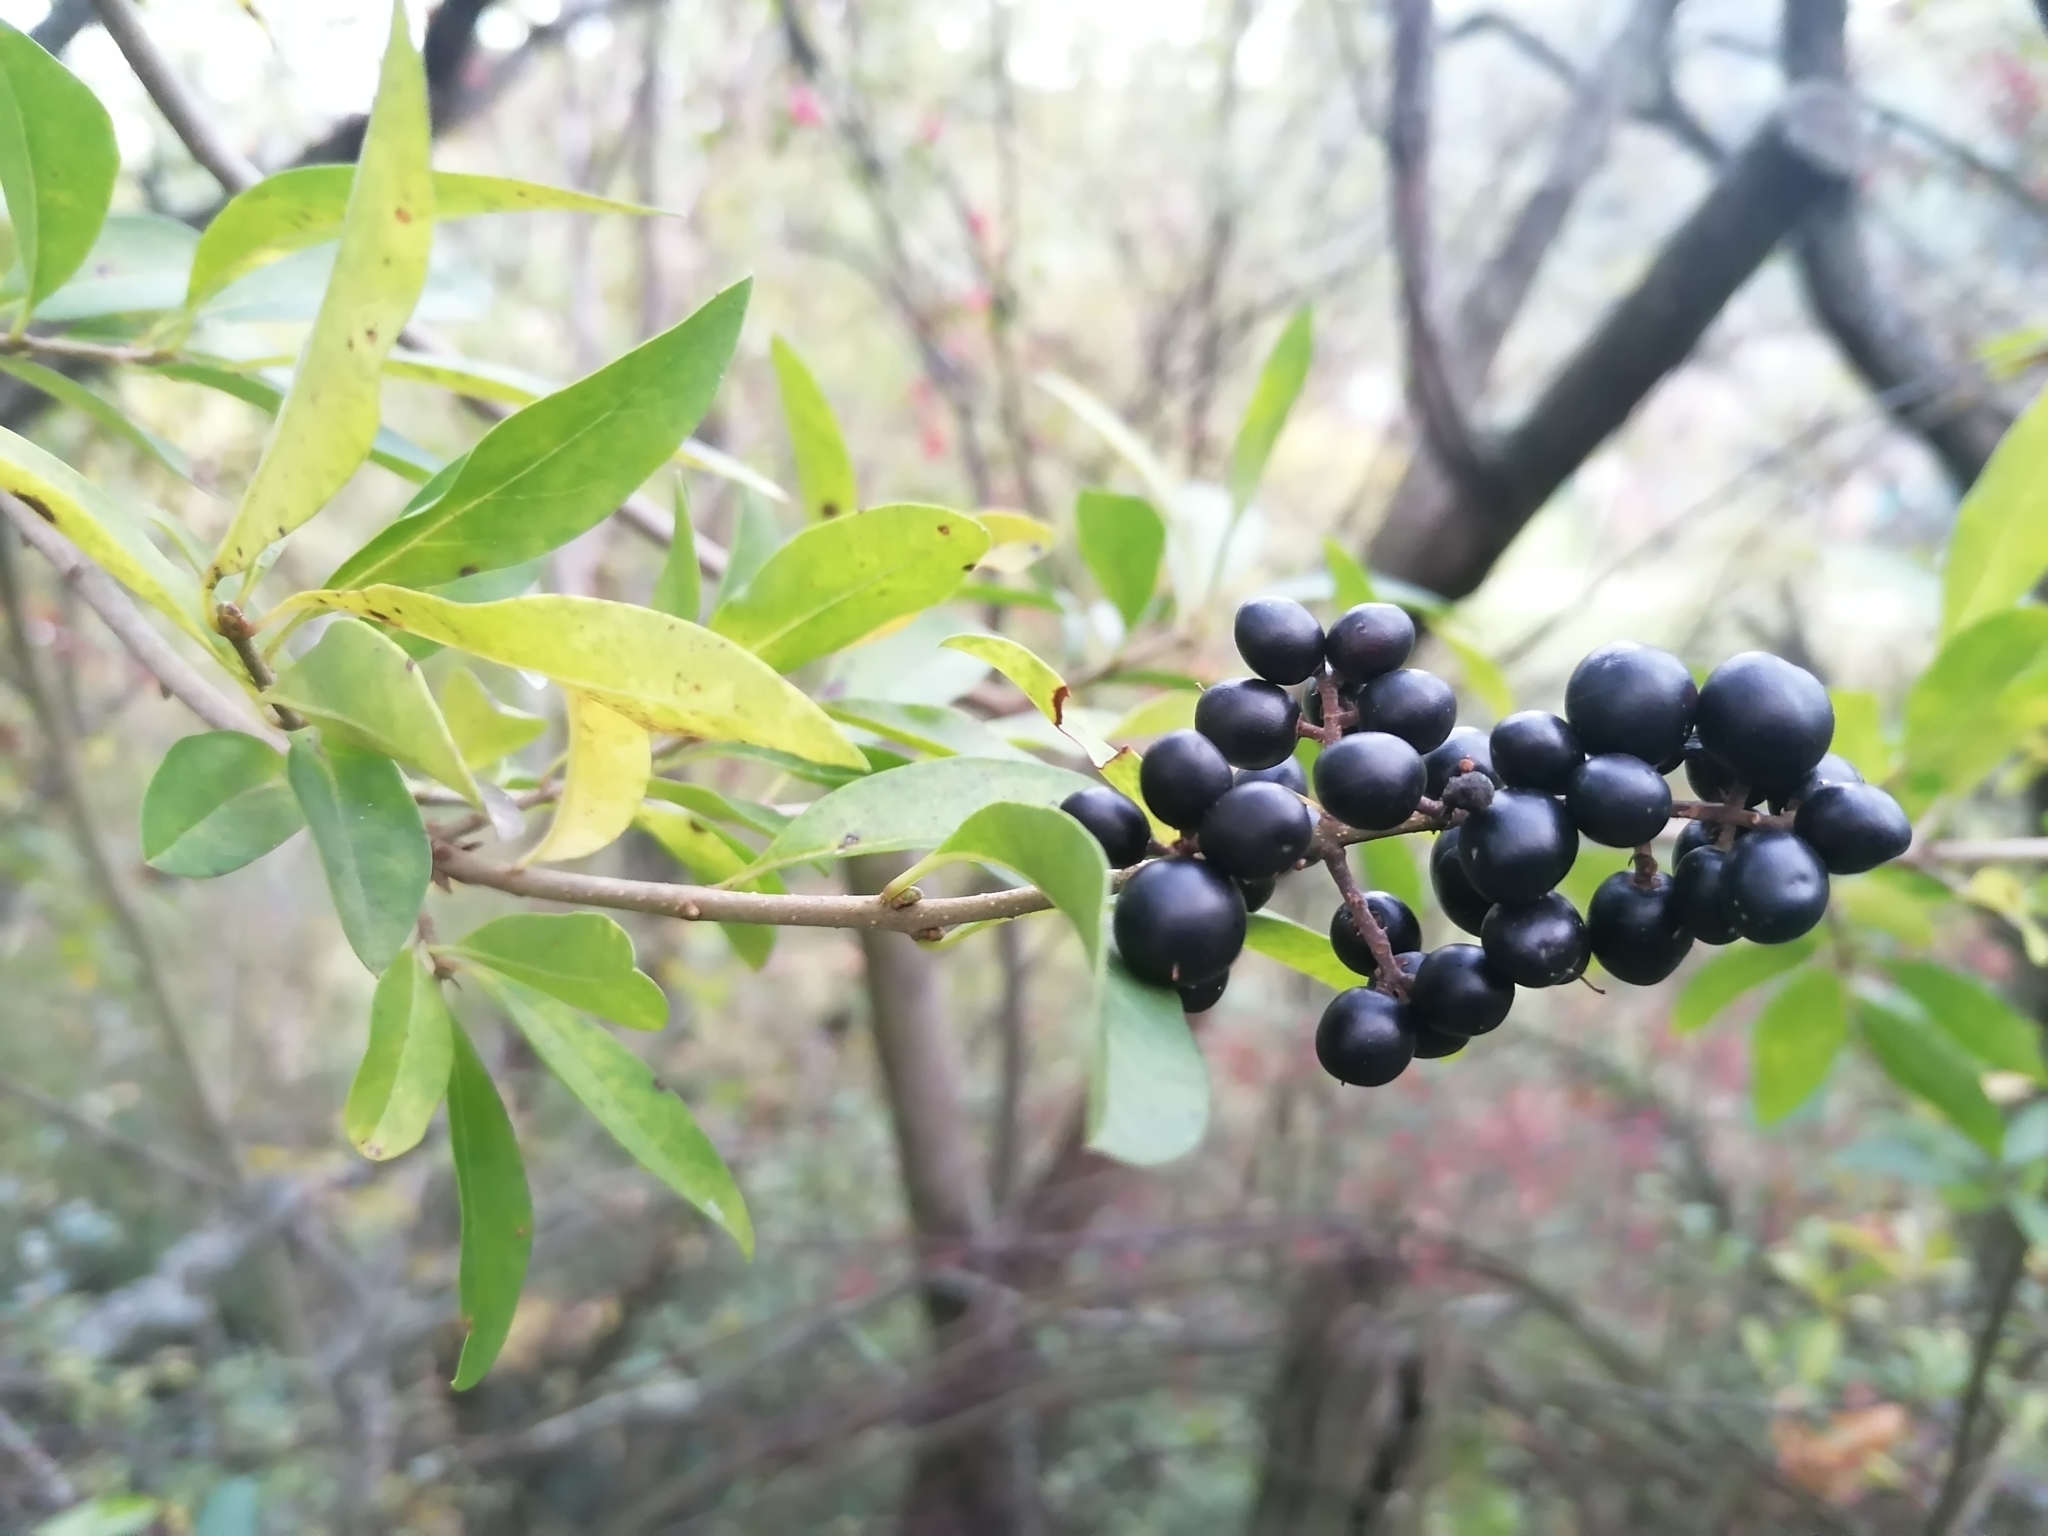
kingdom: Plantae
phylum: Tracheophyta
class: Magnoliopsida
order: Lamiales
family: Oleaceae
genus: Ligustrum
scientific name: Ligustrum vulgare
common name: Wild privet
